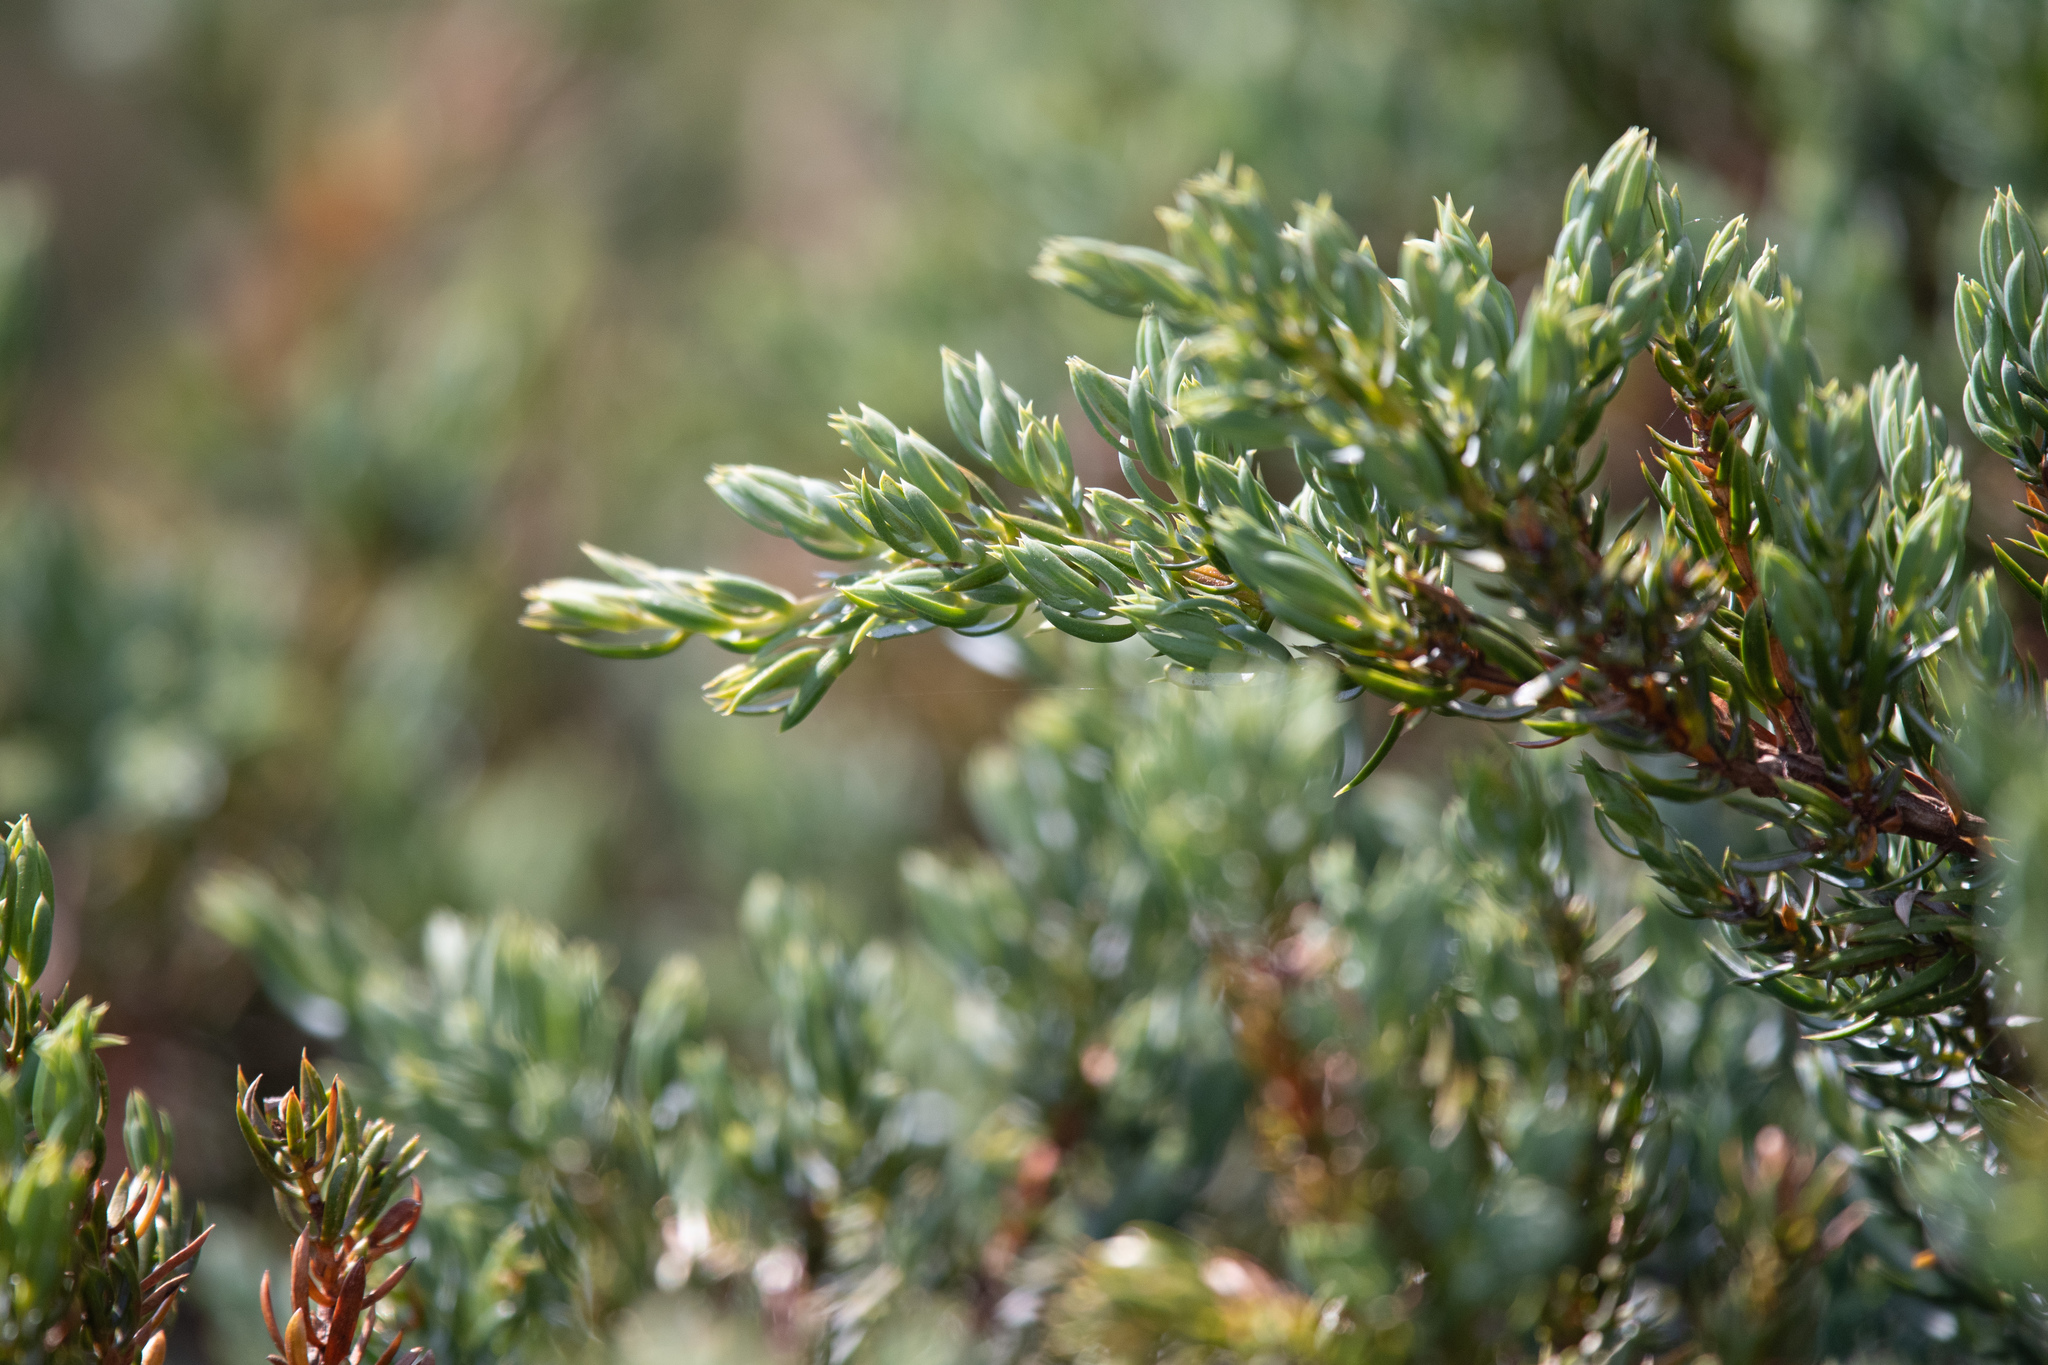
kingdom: Plantae
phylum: Tracheophyta
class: Pinopsida
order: Pinales
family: Cupressaceae
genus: Juniperus
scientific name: Juniperus communis
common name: Common juniper
